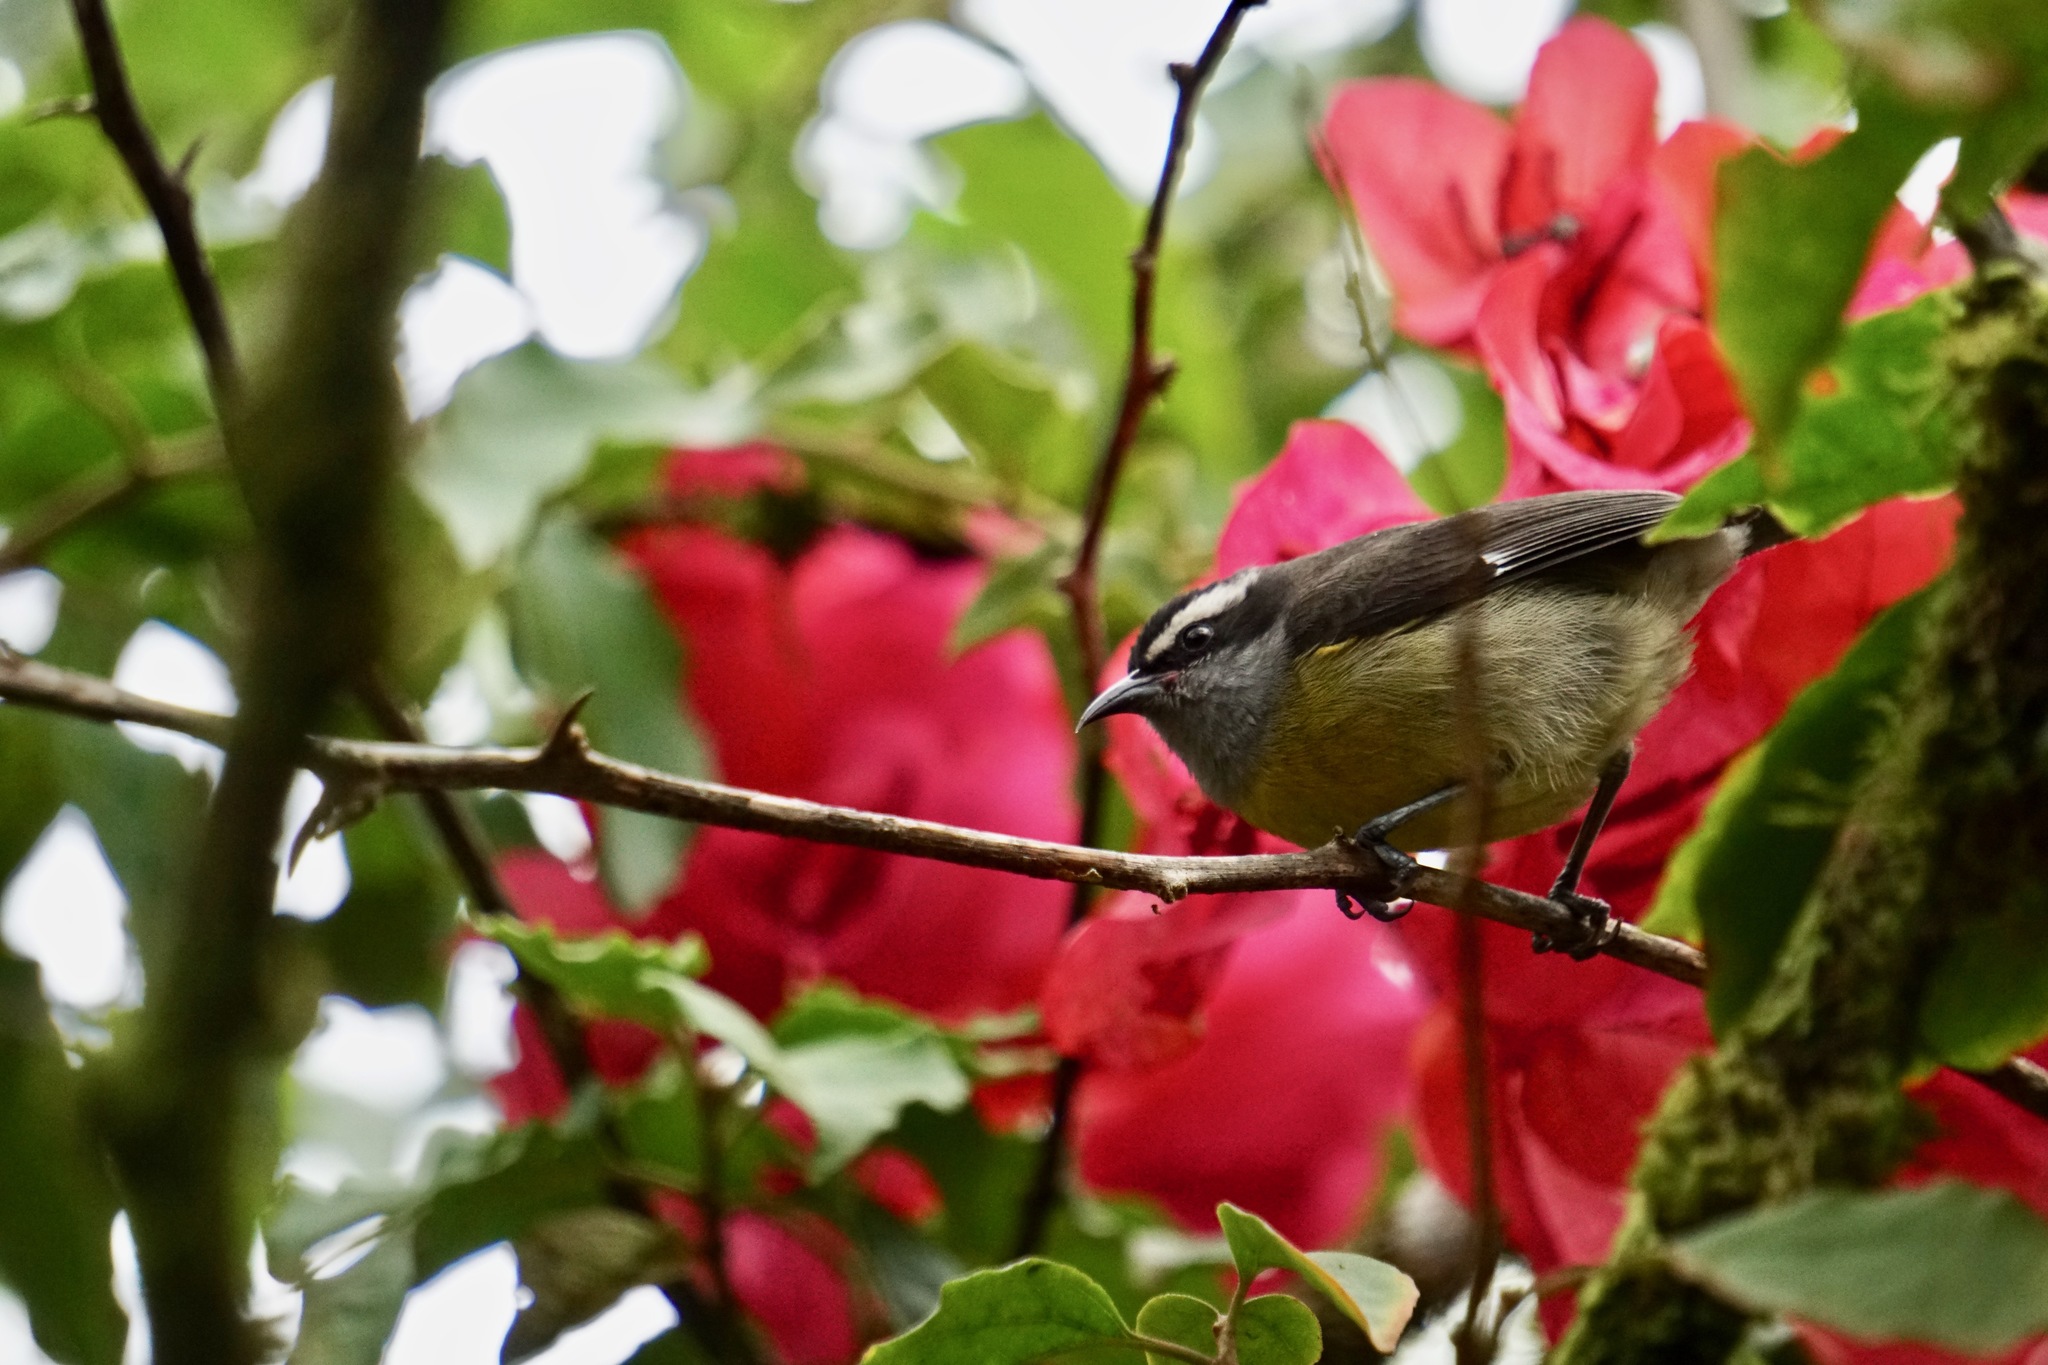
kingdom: Animalia
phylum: Chordata
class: Aves
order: Passeriformes
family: Thraupidae
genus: Coereba
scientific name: Coereba flaveola
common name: Bananaquit
